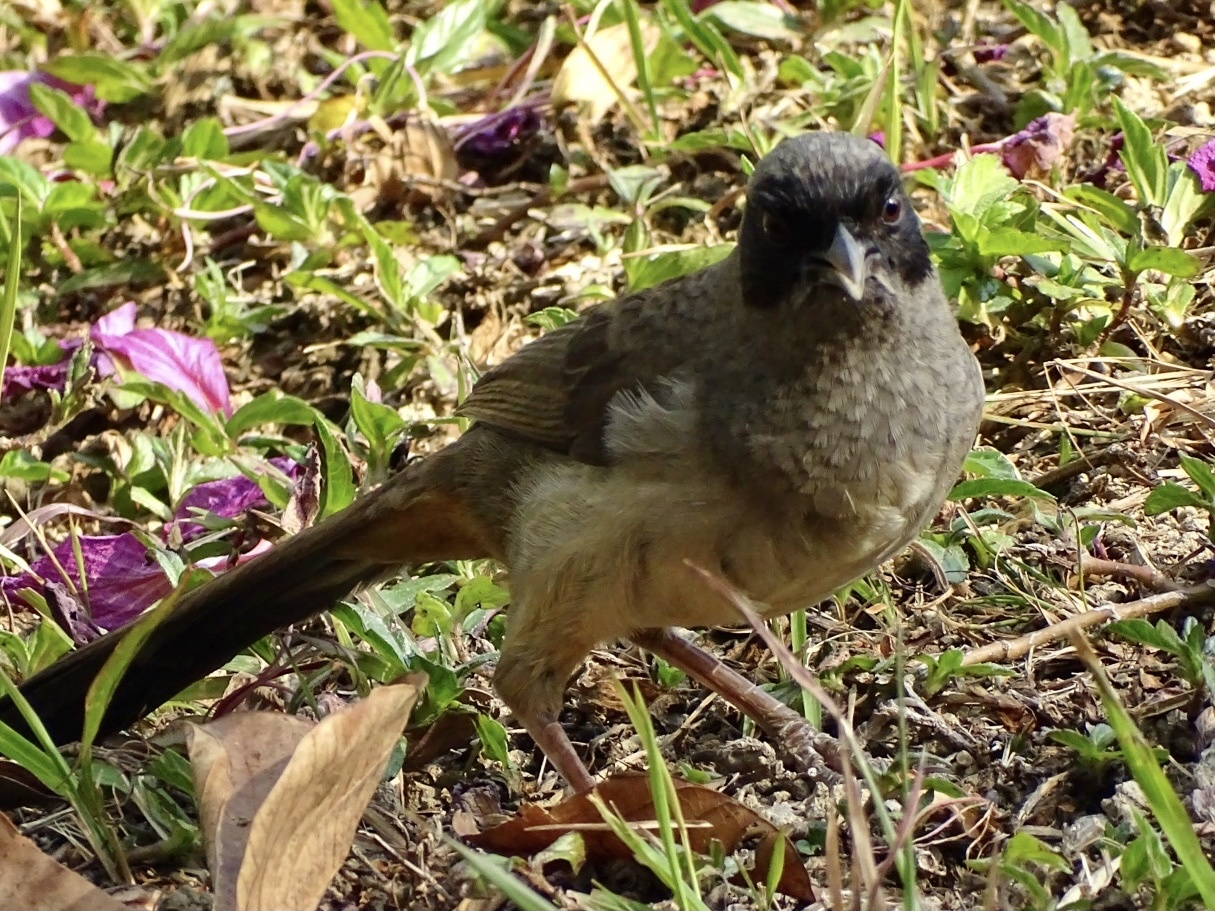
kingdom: Animalia
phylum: Chordata
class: Aves
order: Passeriformes
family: Leiothrichidae
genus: Garrulax
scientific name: Garrulax perspicillatus
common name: Masked laughingthrush
